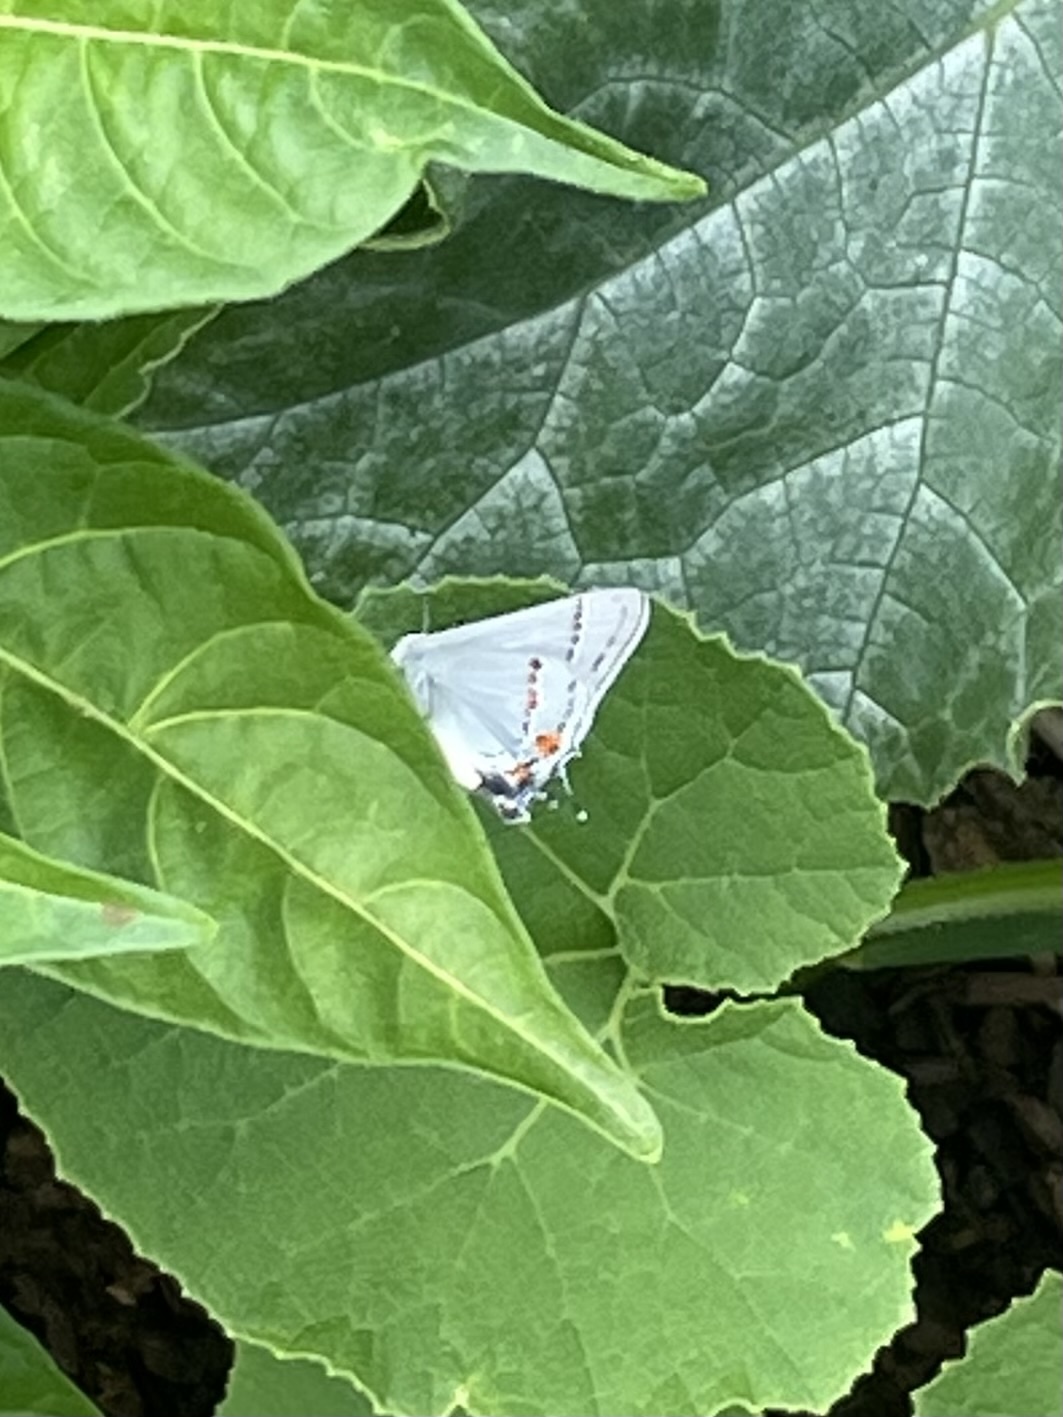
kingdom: Animalia
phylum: Arthropoda
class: Insecta
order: Lepidoptera
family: Lycaenidae
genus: Strymon
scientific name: Strymon melinus
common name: Gray hairstreak
